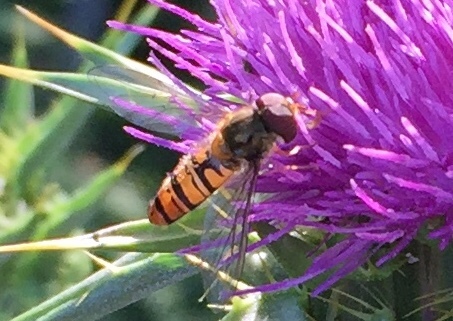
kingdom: Animalia
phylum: Arthropoda
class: Insecta
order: Diptera
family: Syrphidae
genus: Episyrphus
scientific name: Episyrphus balteatus
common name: Marmalade hoverfly
